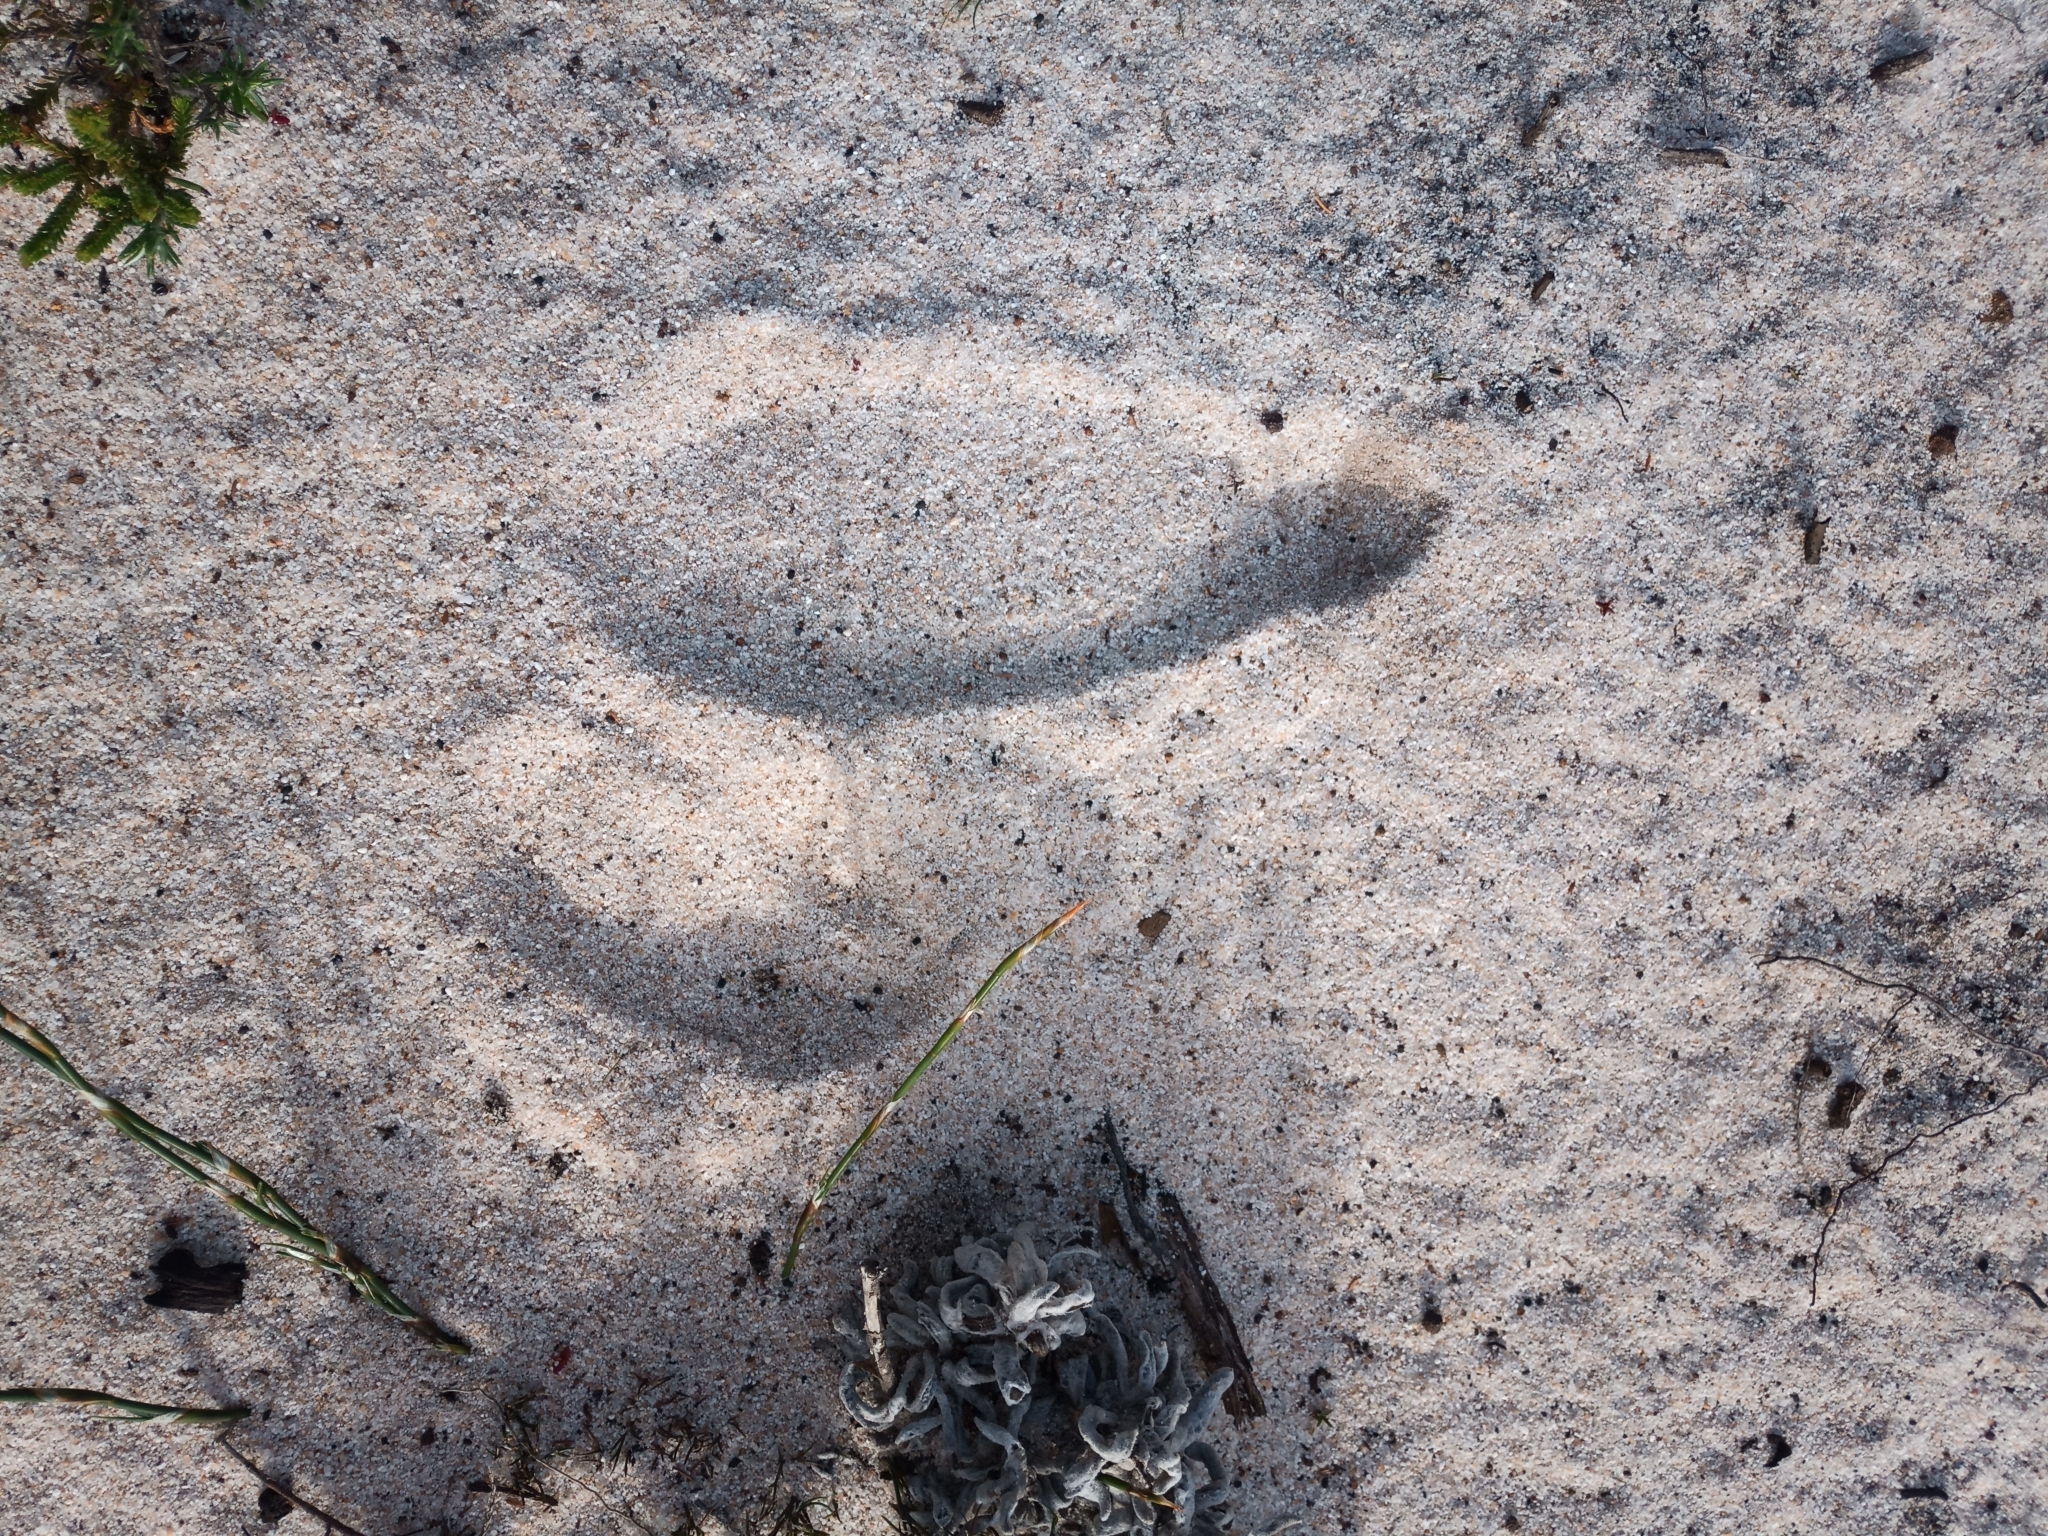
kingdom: Animalia
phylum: Chordata
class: Aves
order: Struthioniformes
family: Struthionidae
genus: Struthio
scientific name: Struthio camelus
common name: Common ostrich
